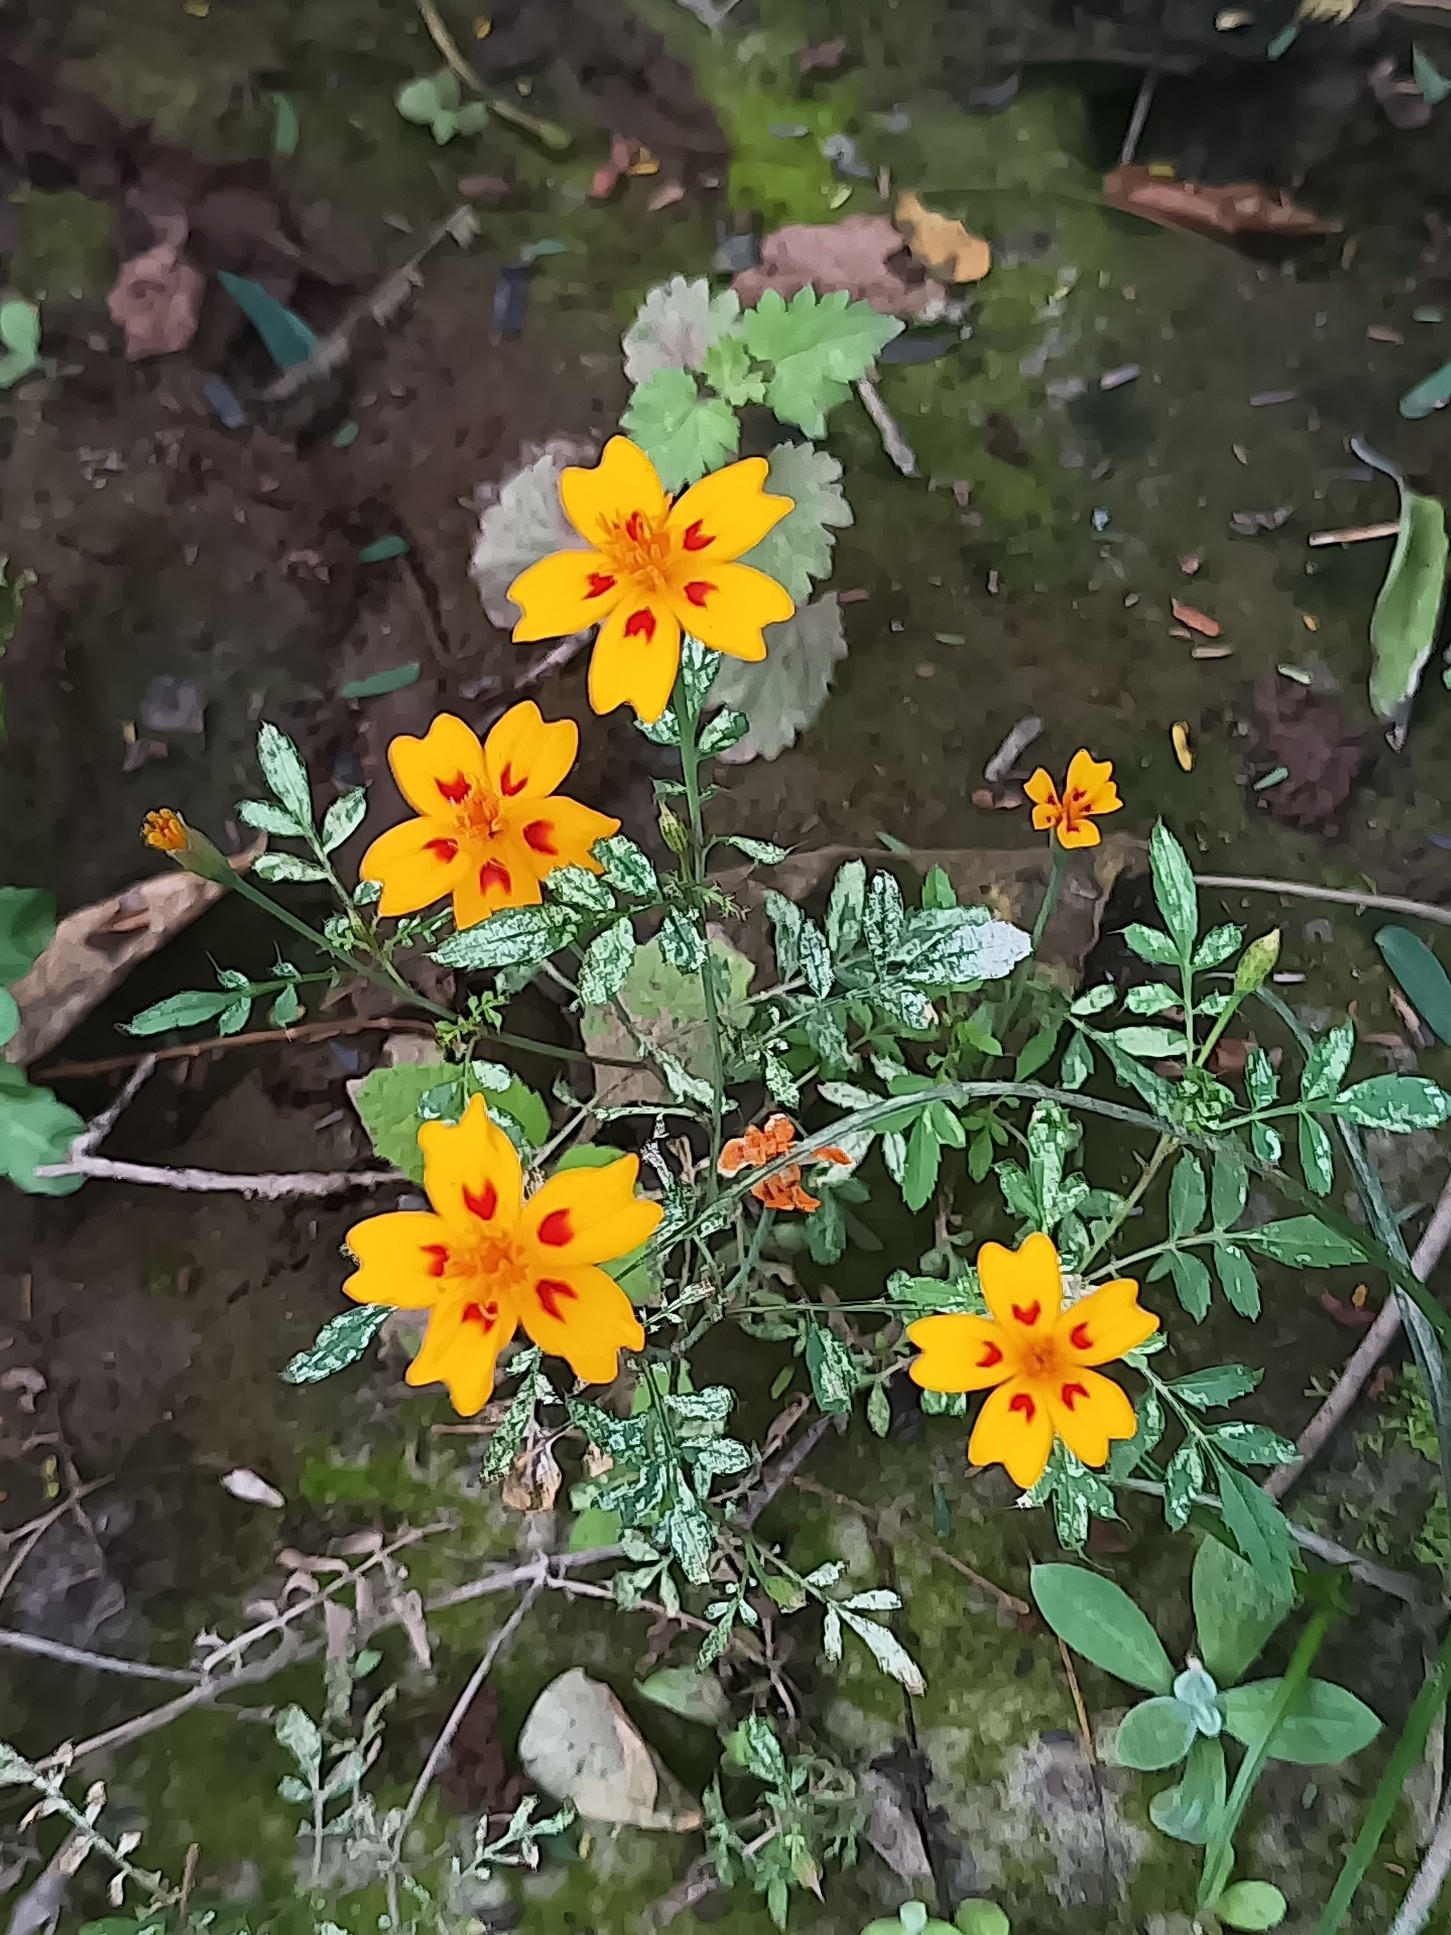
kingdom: Plantae
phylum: Tracheophyta
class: Magnoliopsida
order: Asterales
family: Asteraceae
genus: Tagetes
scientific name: Tagetes lunulata
